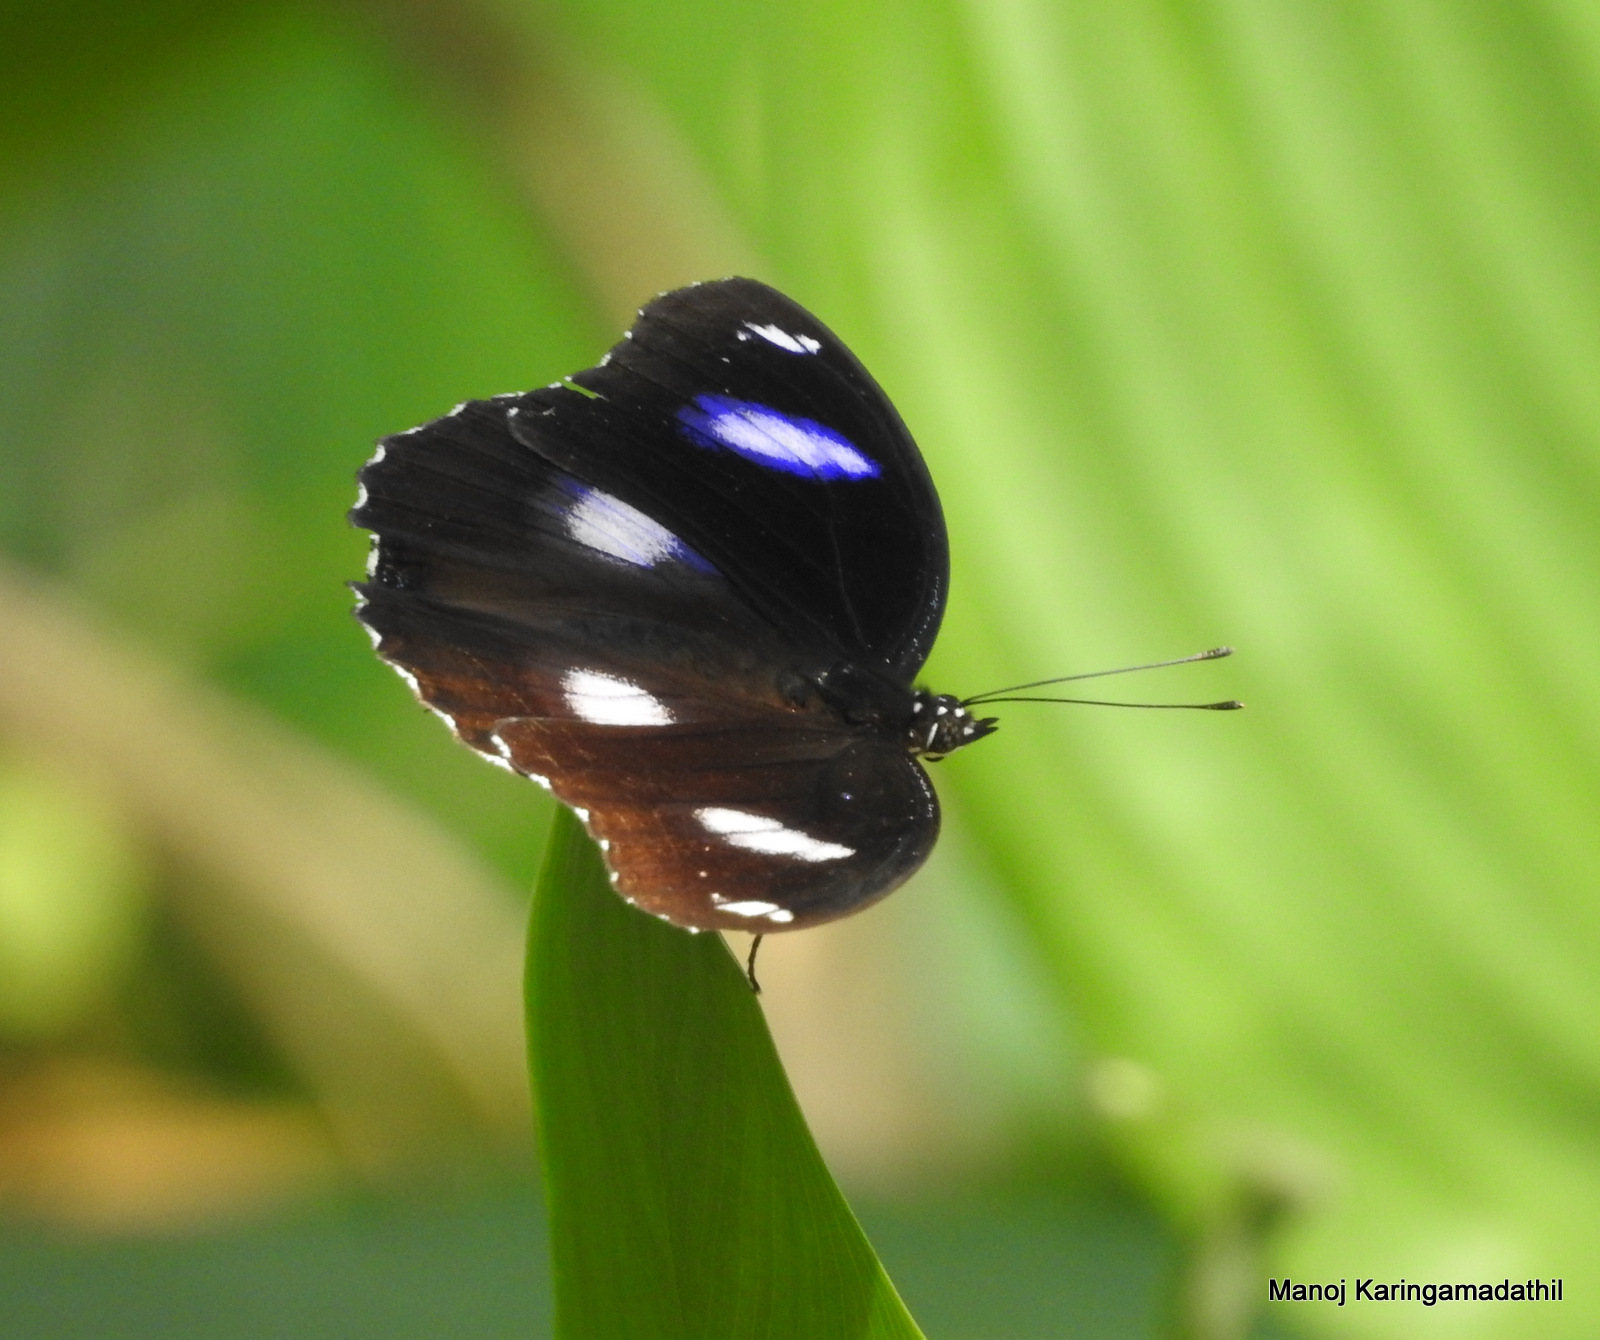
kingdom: Animalia
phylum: Arthropoda
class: Insecta
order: Lepidoptera
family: Nymphalidae
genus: Hypolimnas
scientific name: Hypolimnas bolina
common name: Great eggfly
